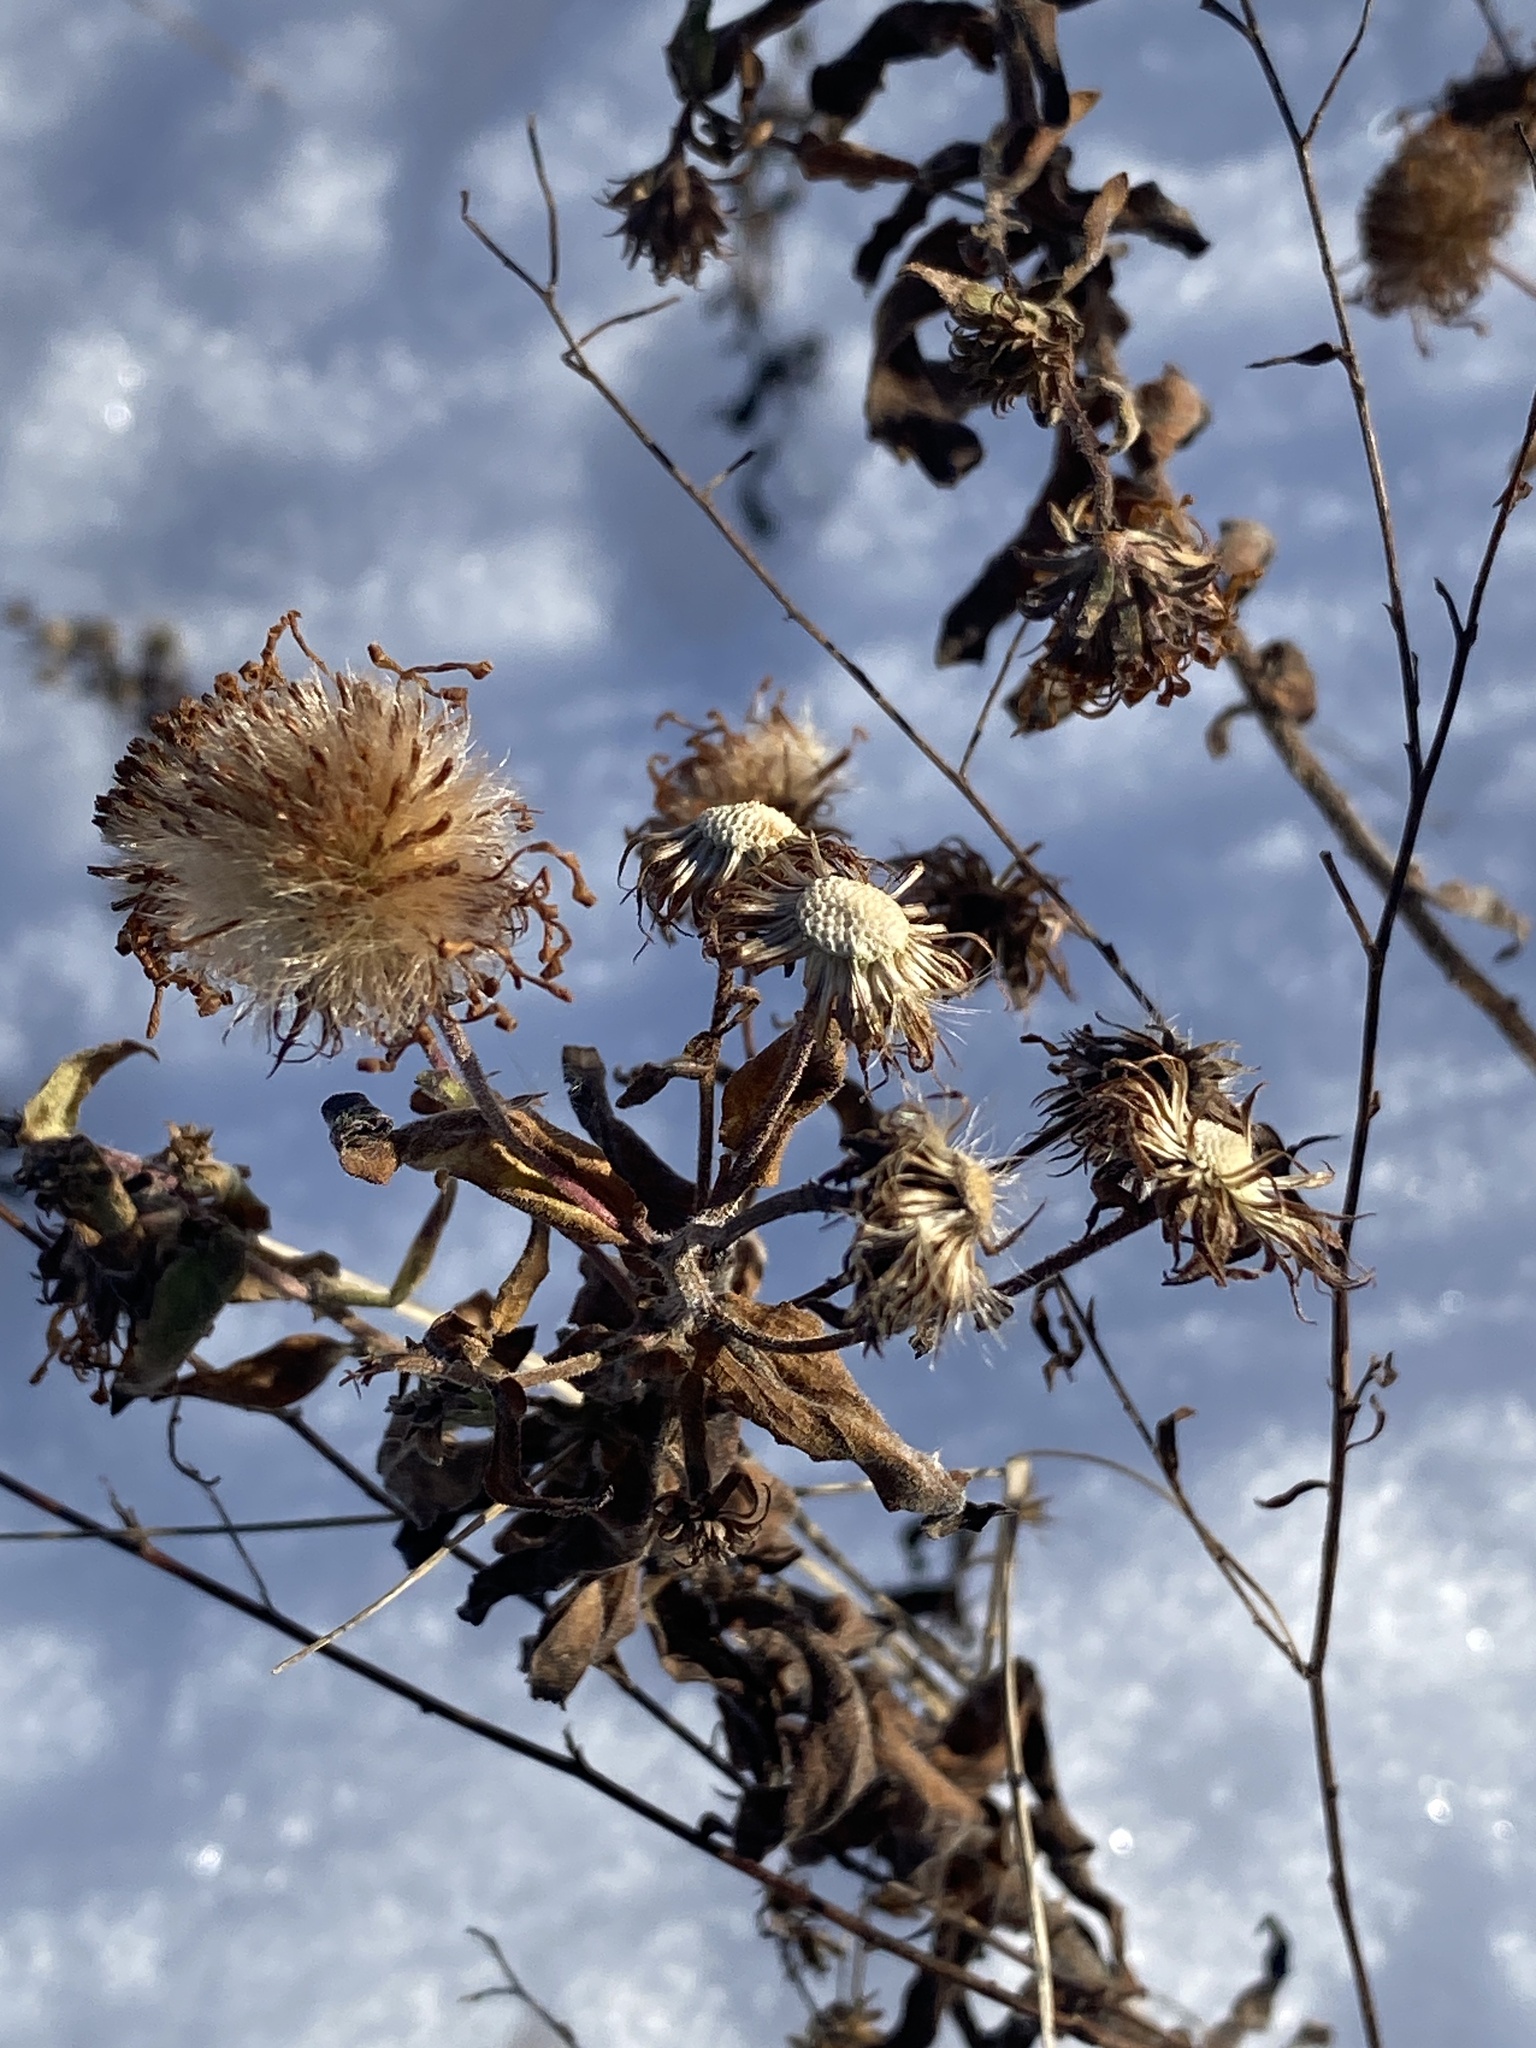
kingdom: Plantae
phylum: Tracheophyta
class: Magnoliopsida
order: Asterales
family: Asteraceae
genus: Symphyotrichum
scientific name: Symphyotrichum novae-angliae
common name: Michaelmas daisy
